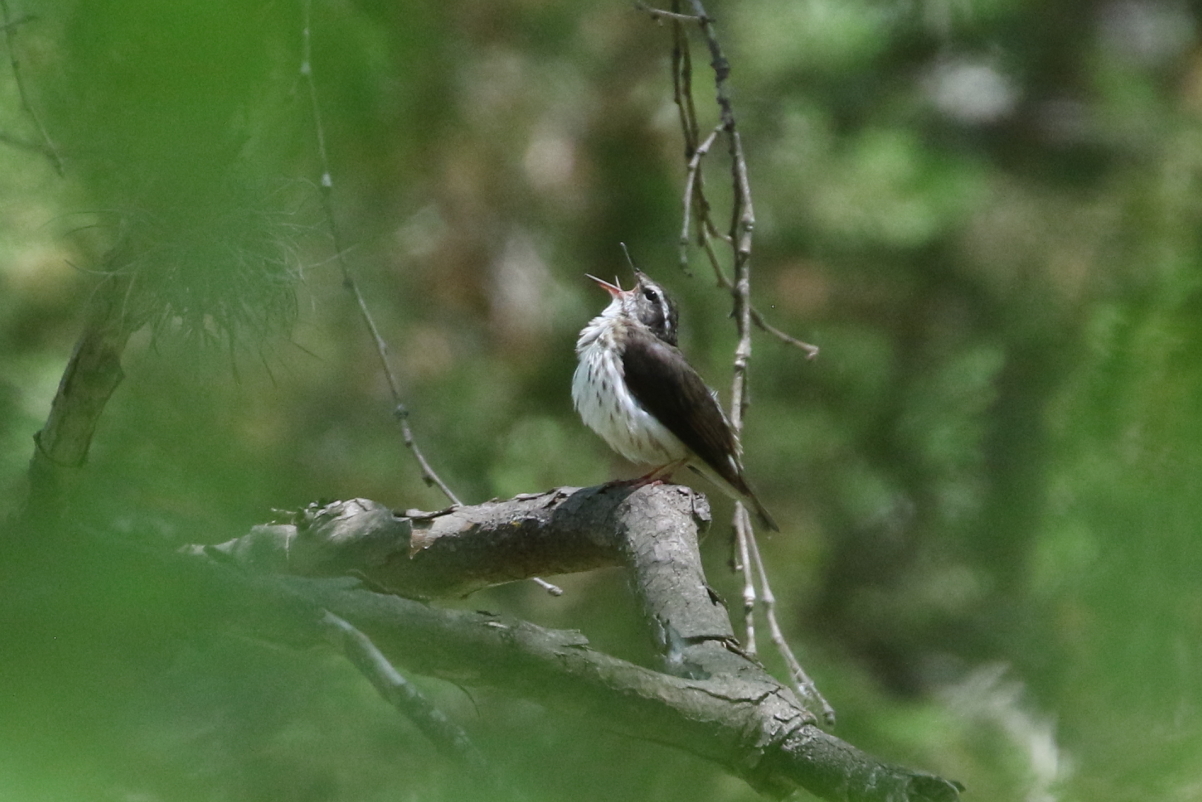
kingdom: Animalia
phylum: Chordata
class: Aves
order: Passeriformes
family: Parulidae
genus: Parkesia
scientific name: Parkesia motacilla
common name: Louisiana waterthrush
